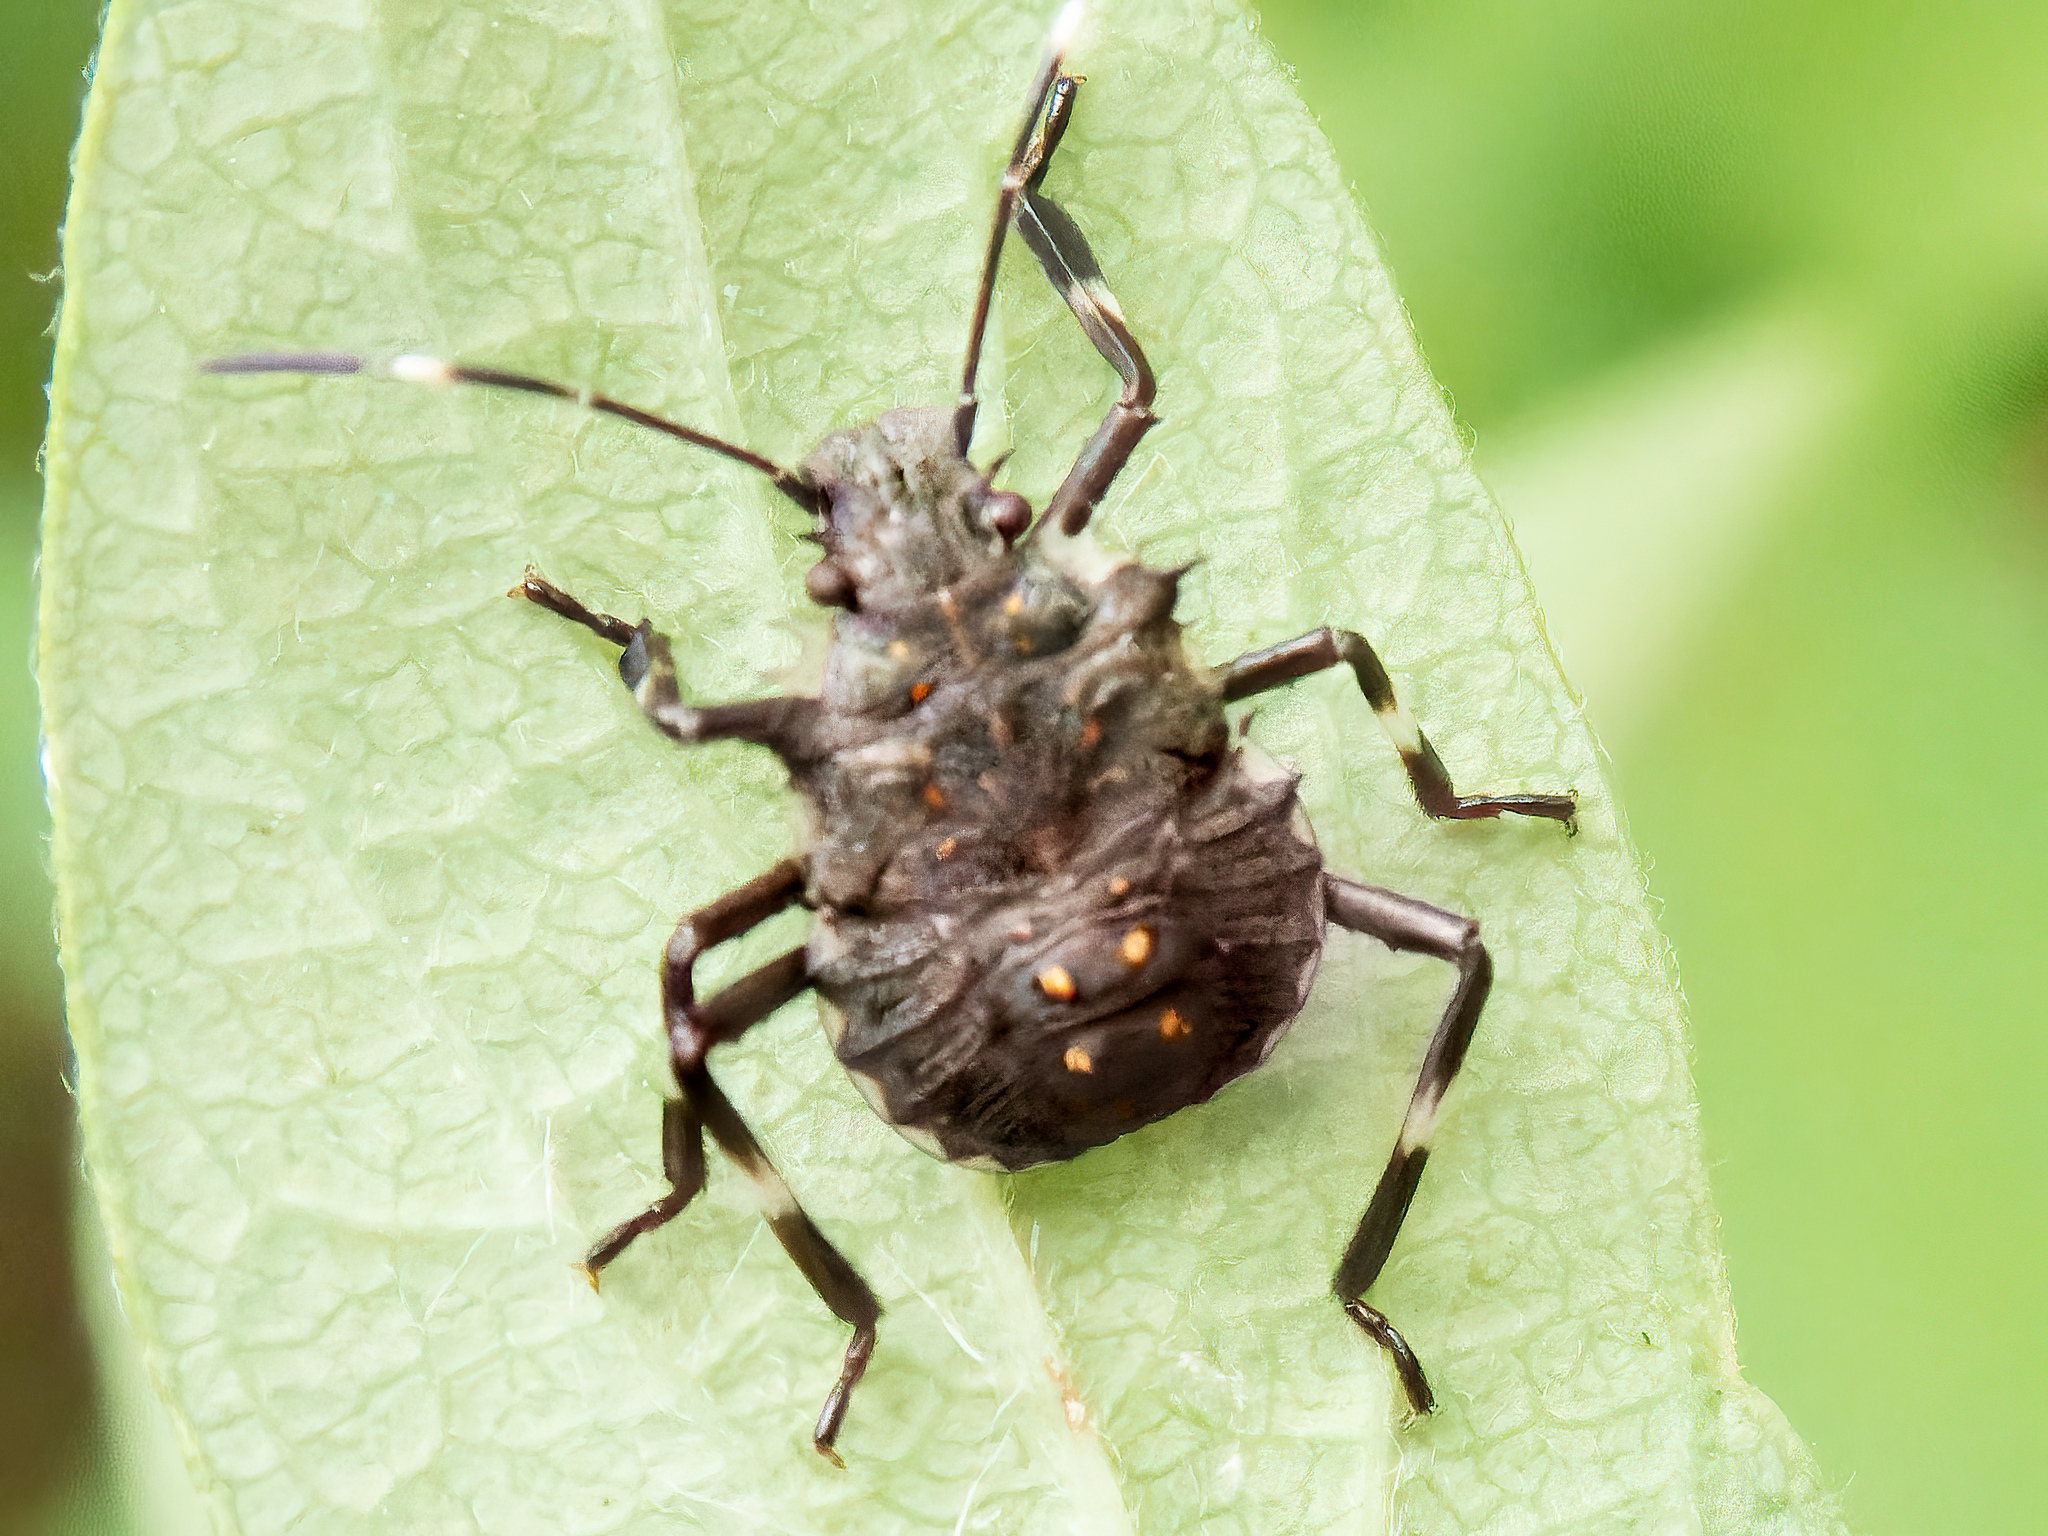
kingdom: Animalia
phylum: Arthropoda
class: Insecta
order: Hemiptera
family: Pentatomidae
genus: Halyomorpha
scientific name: Halyomorpha halys
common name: Brown marmorated stink bug
